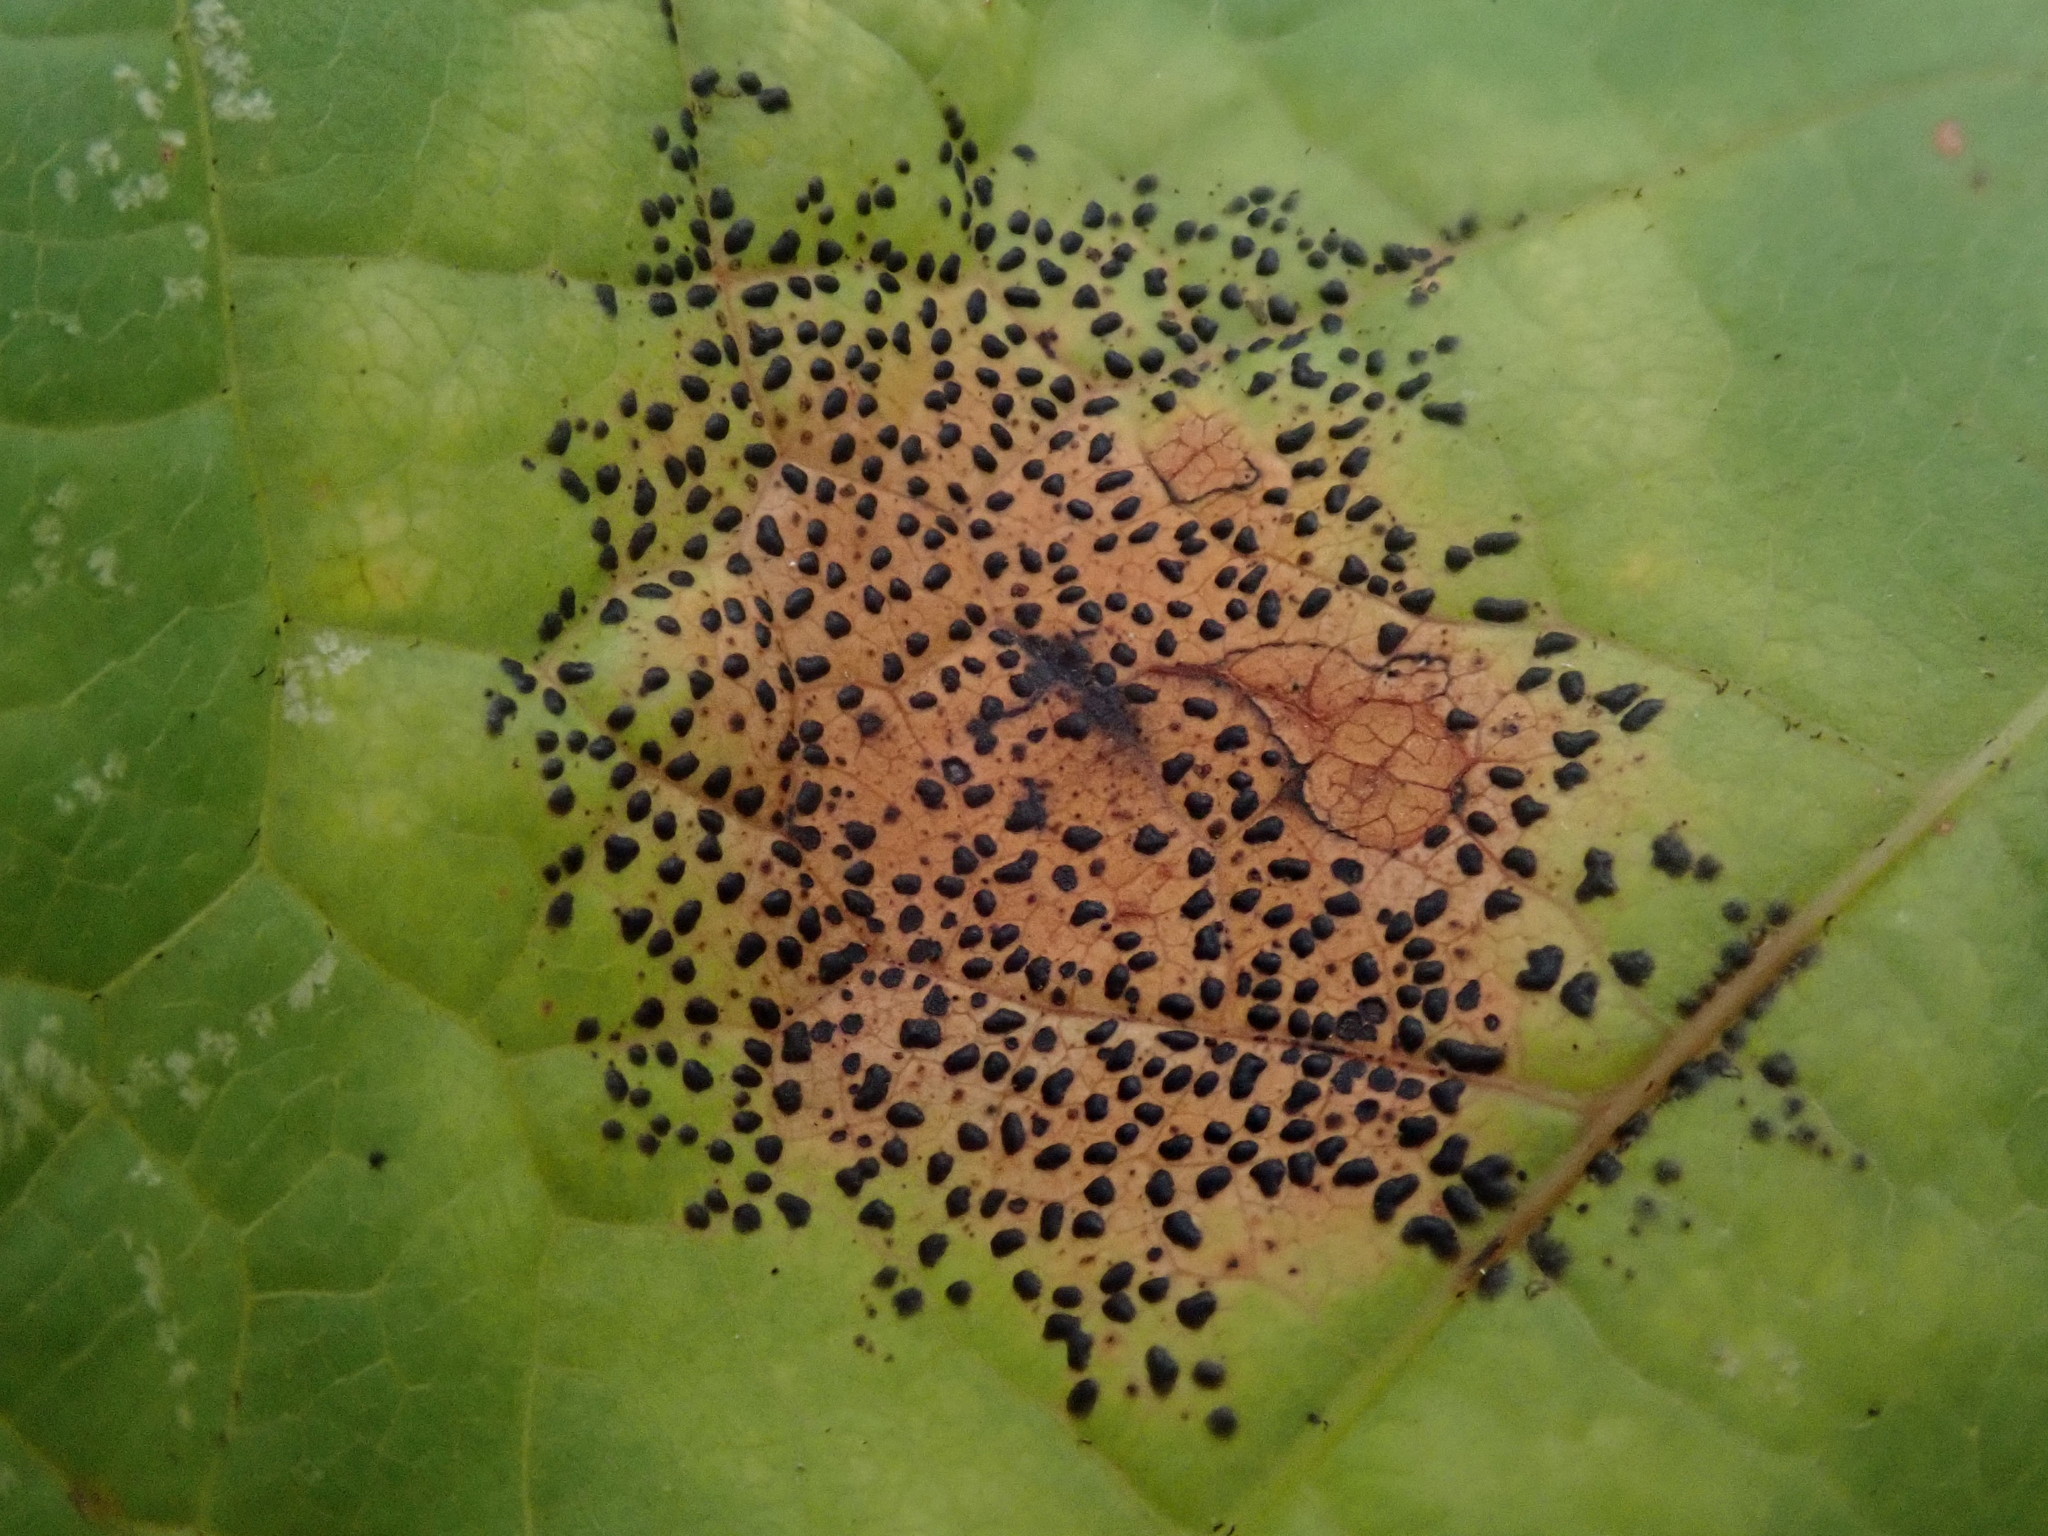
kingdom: Fungi
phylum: Ascomycota
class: Leotiomycetes
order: Rhytismatales
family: Rhytismataceae
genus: Rhytisma
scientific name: Rhytisma punctatum
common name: Speckled tar spot
